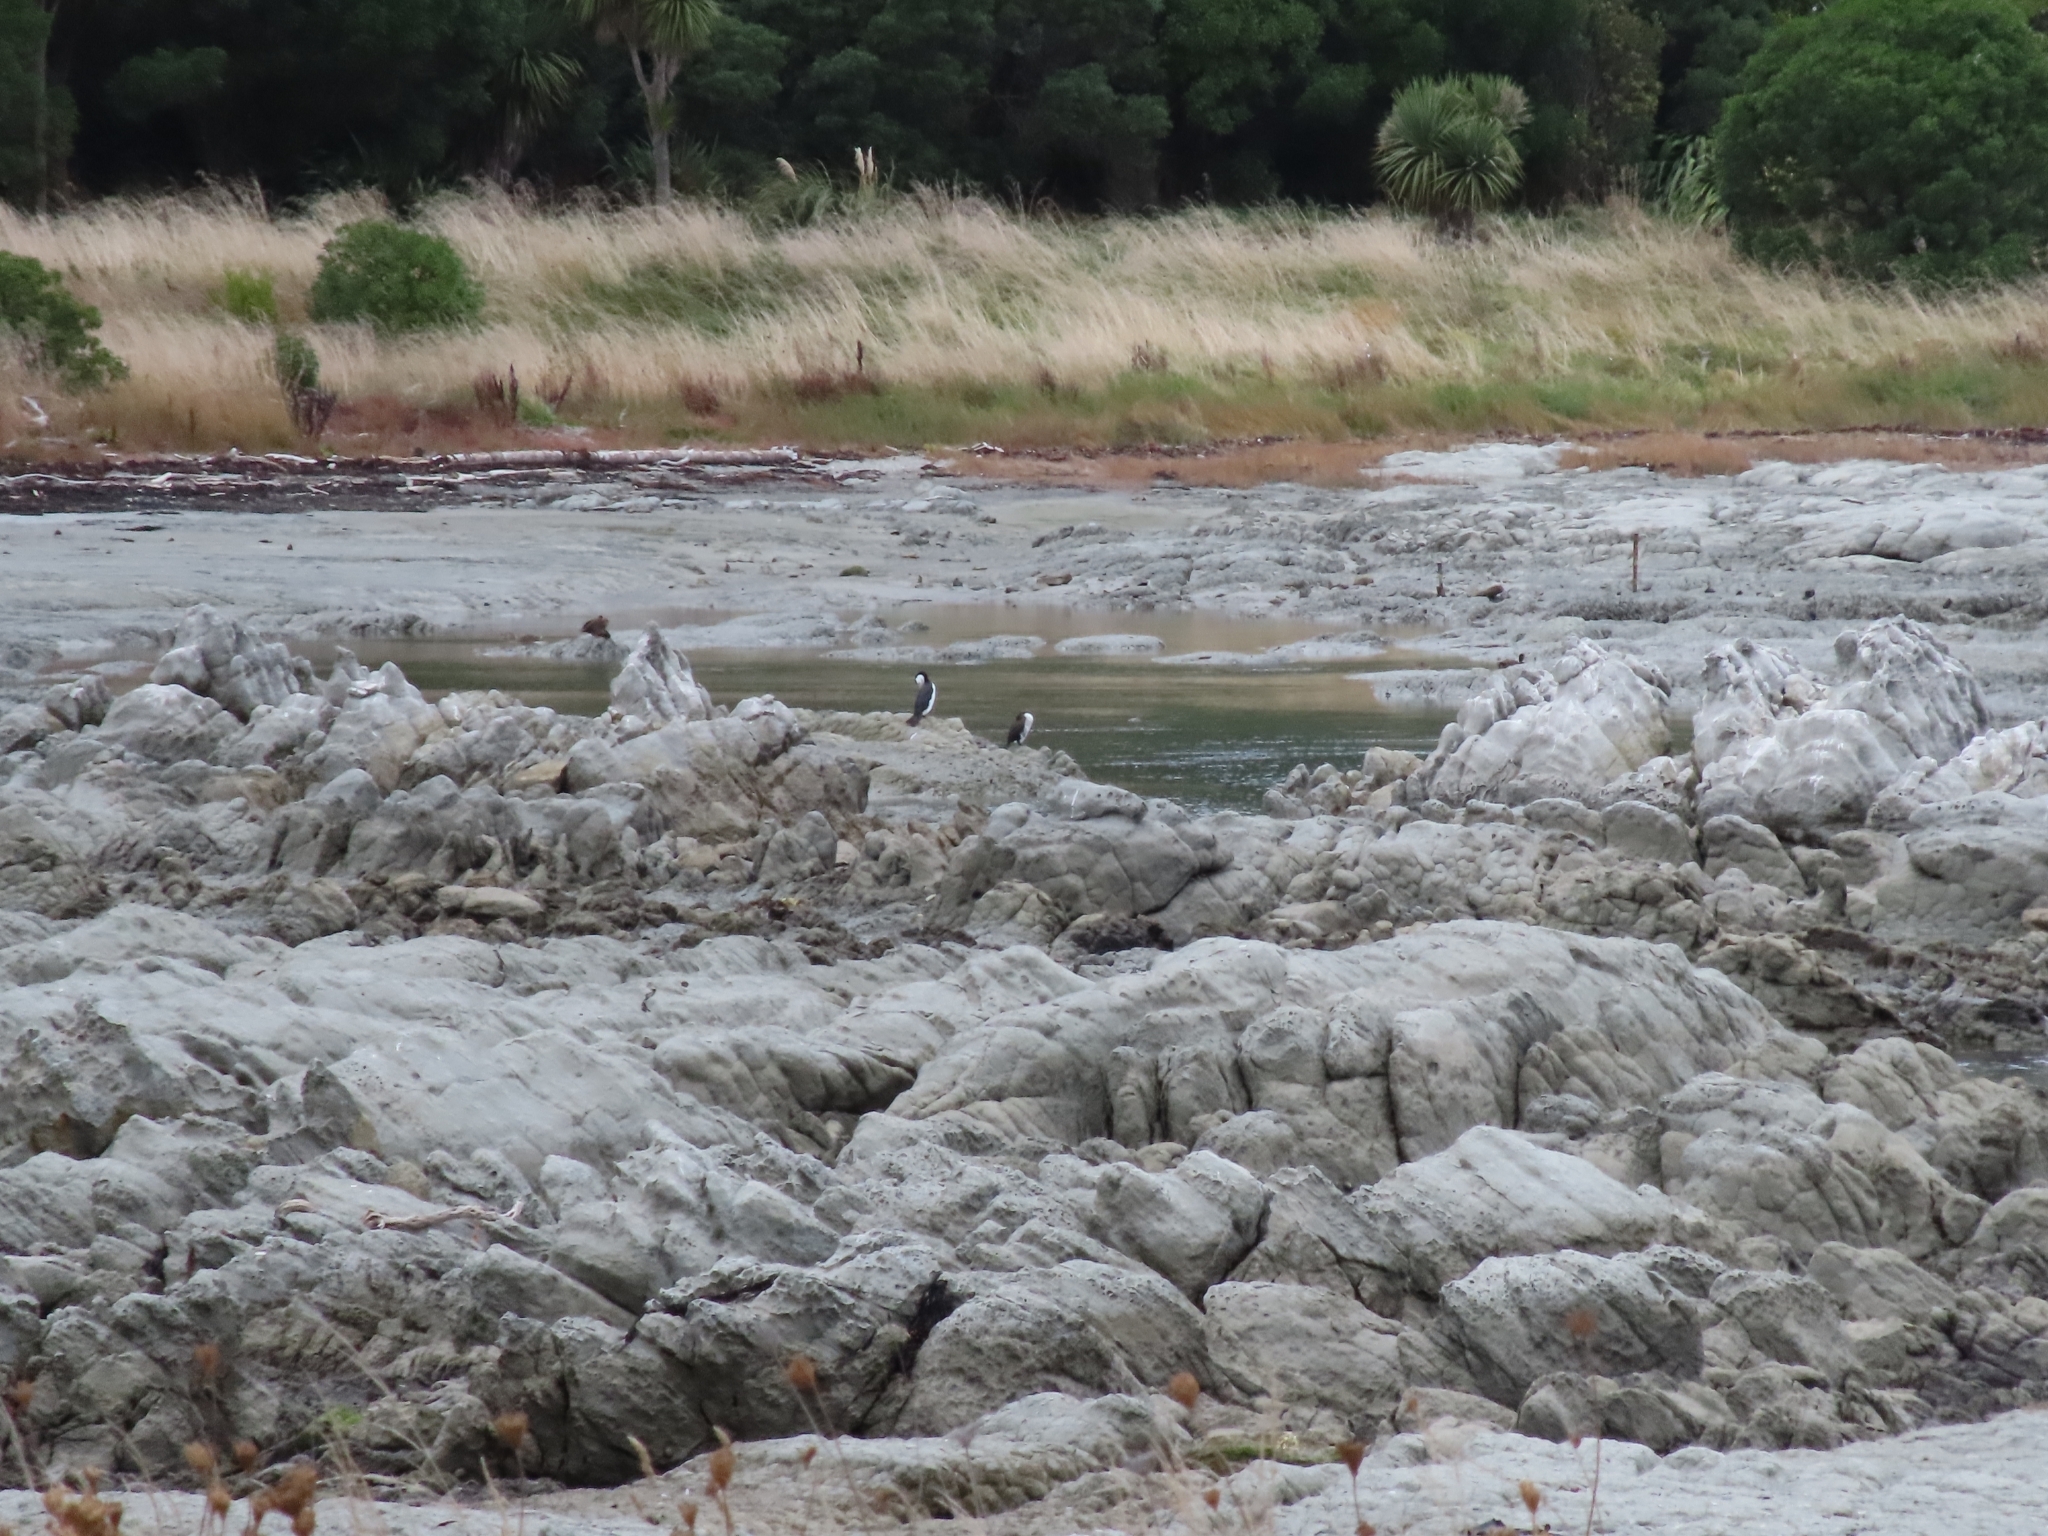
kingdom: Animalia
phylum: Chordata
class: Aves
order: Suliformes
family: Phalacrocoracidae
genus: Phalacrocorax
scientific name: Phalacrocorax varius
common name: Pied cormorant
